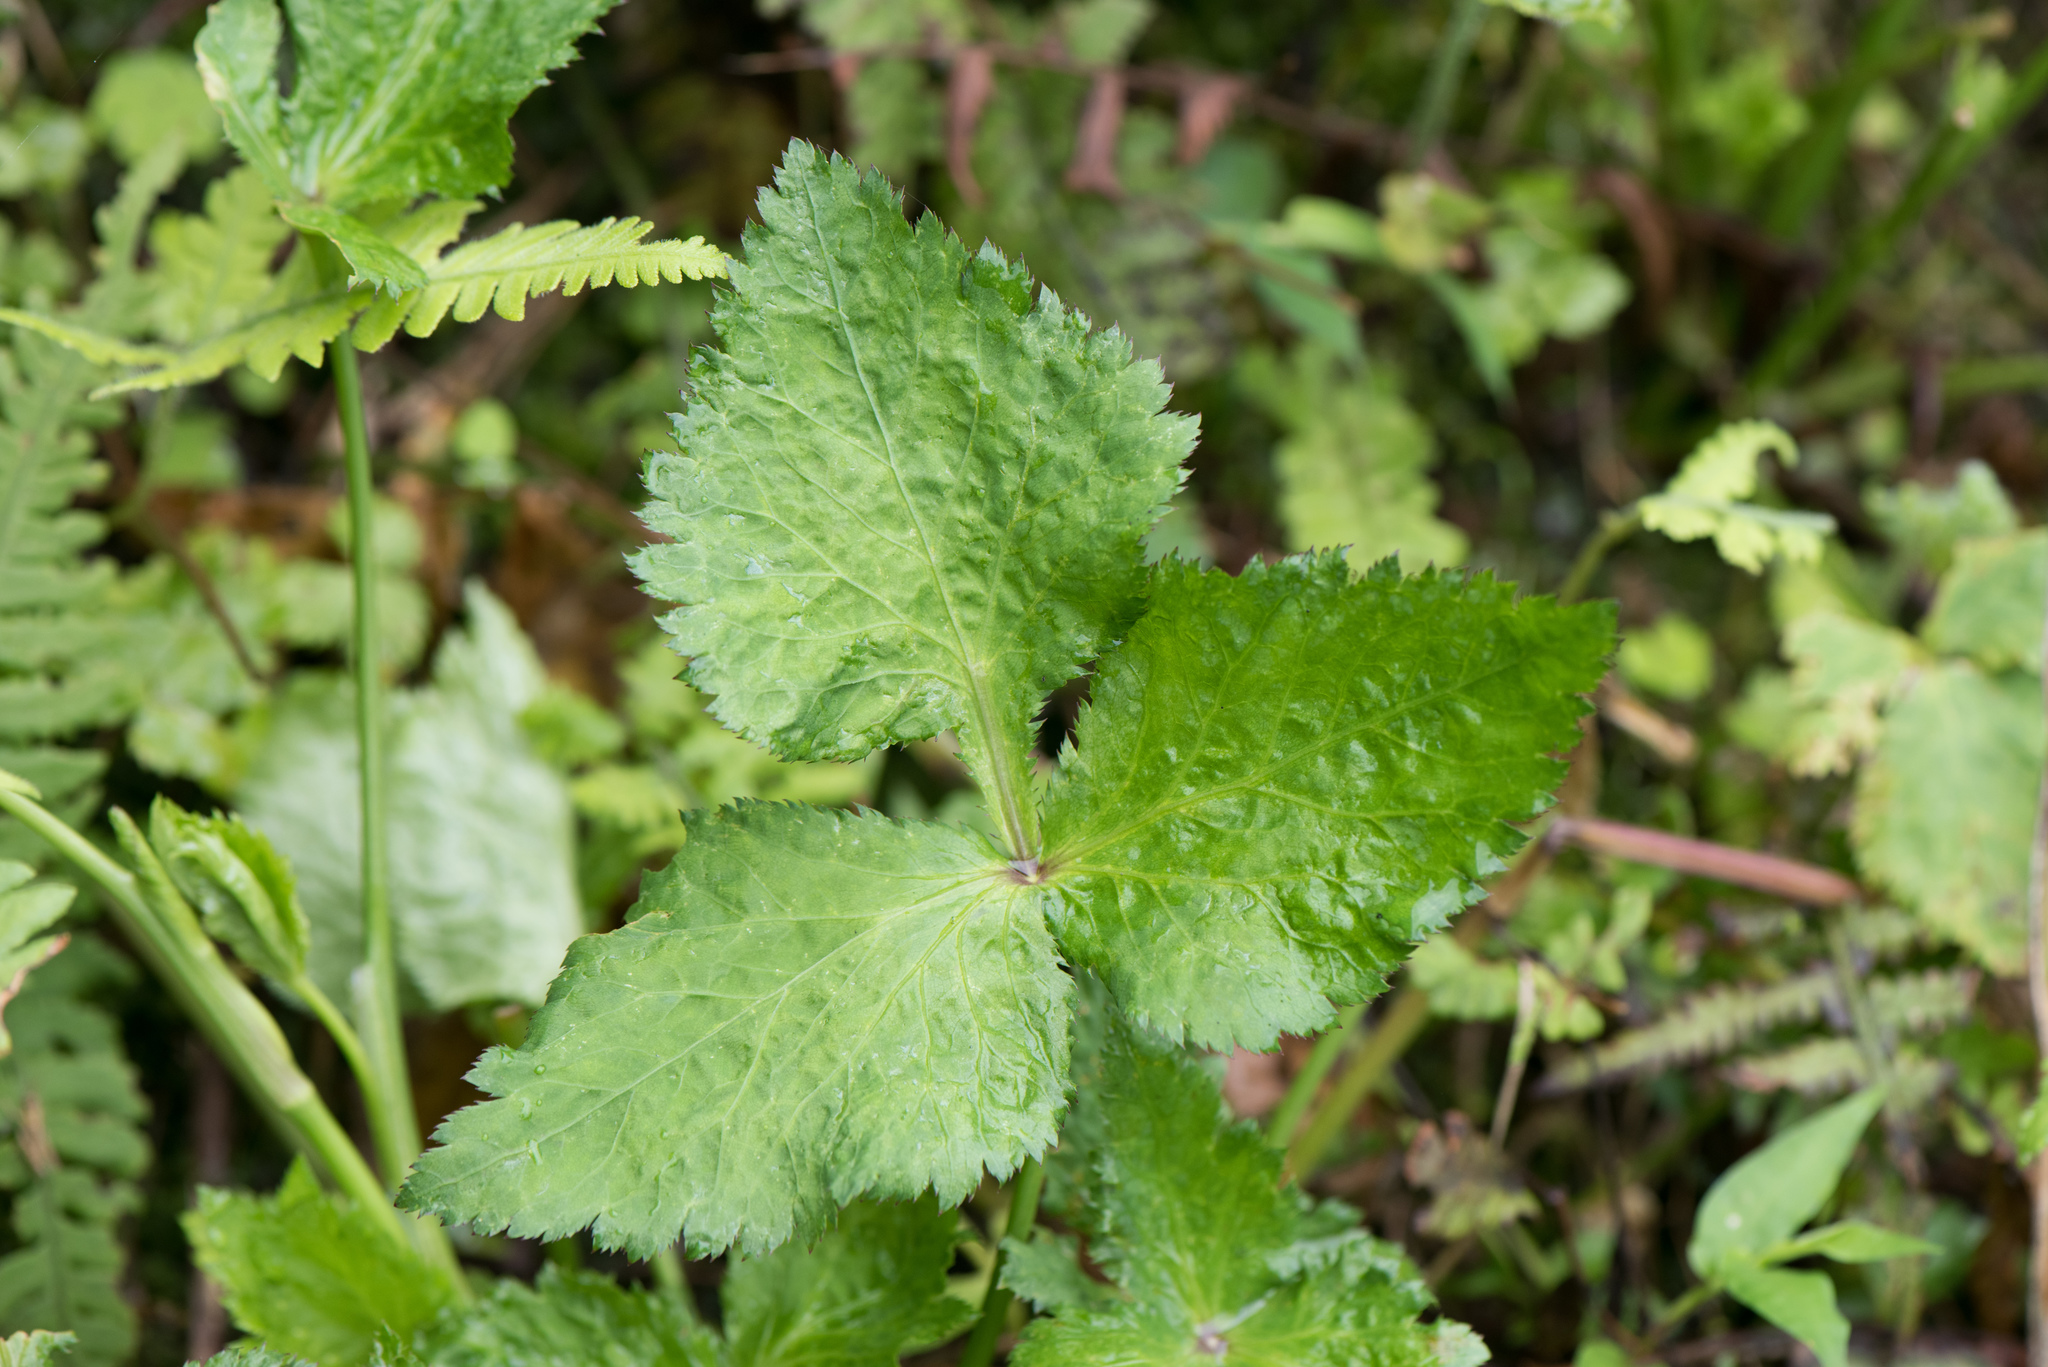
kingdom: Plantae
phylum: Tracheophyta
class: Magnoliopsida
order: Apiales
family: Apiaceae
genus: Cryptotaenia
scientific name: Cryptotaenia japonica
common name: Japanese cryptotaenia
